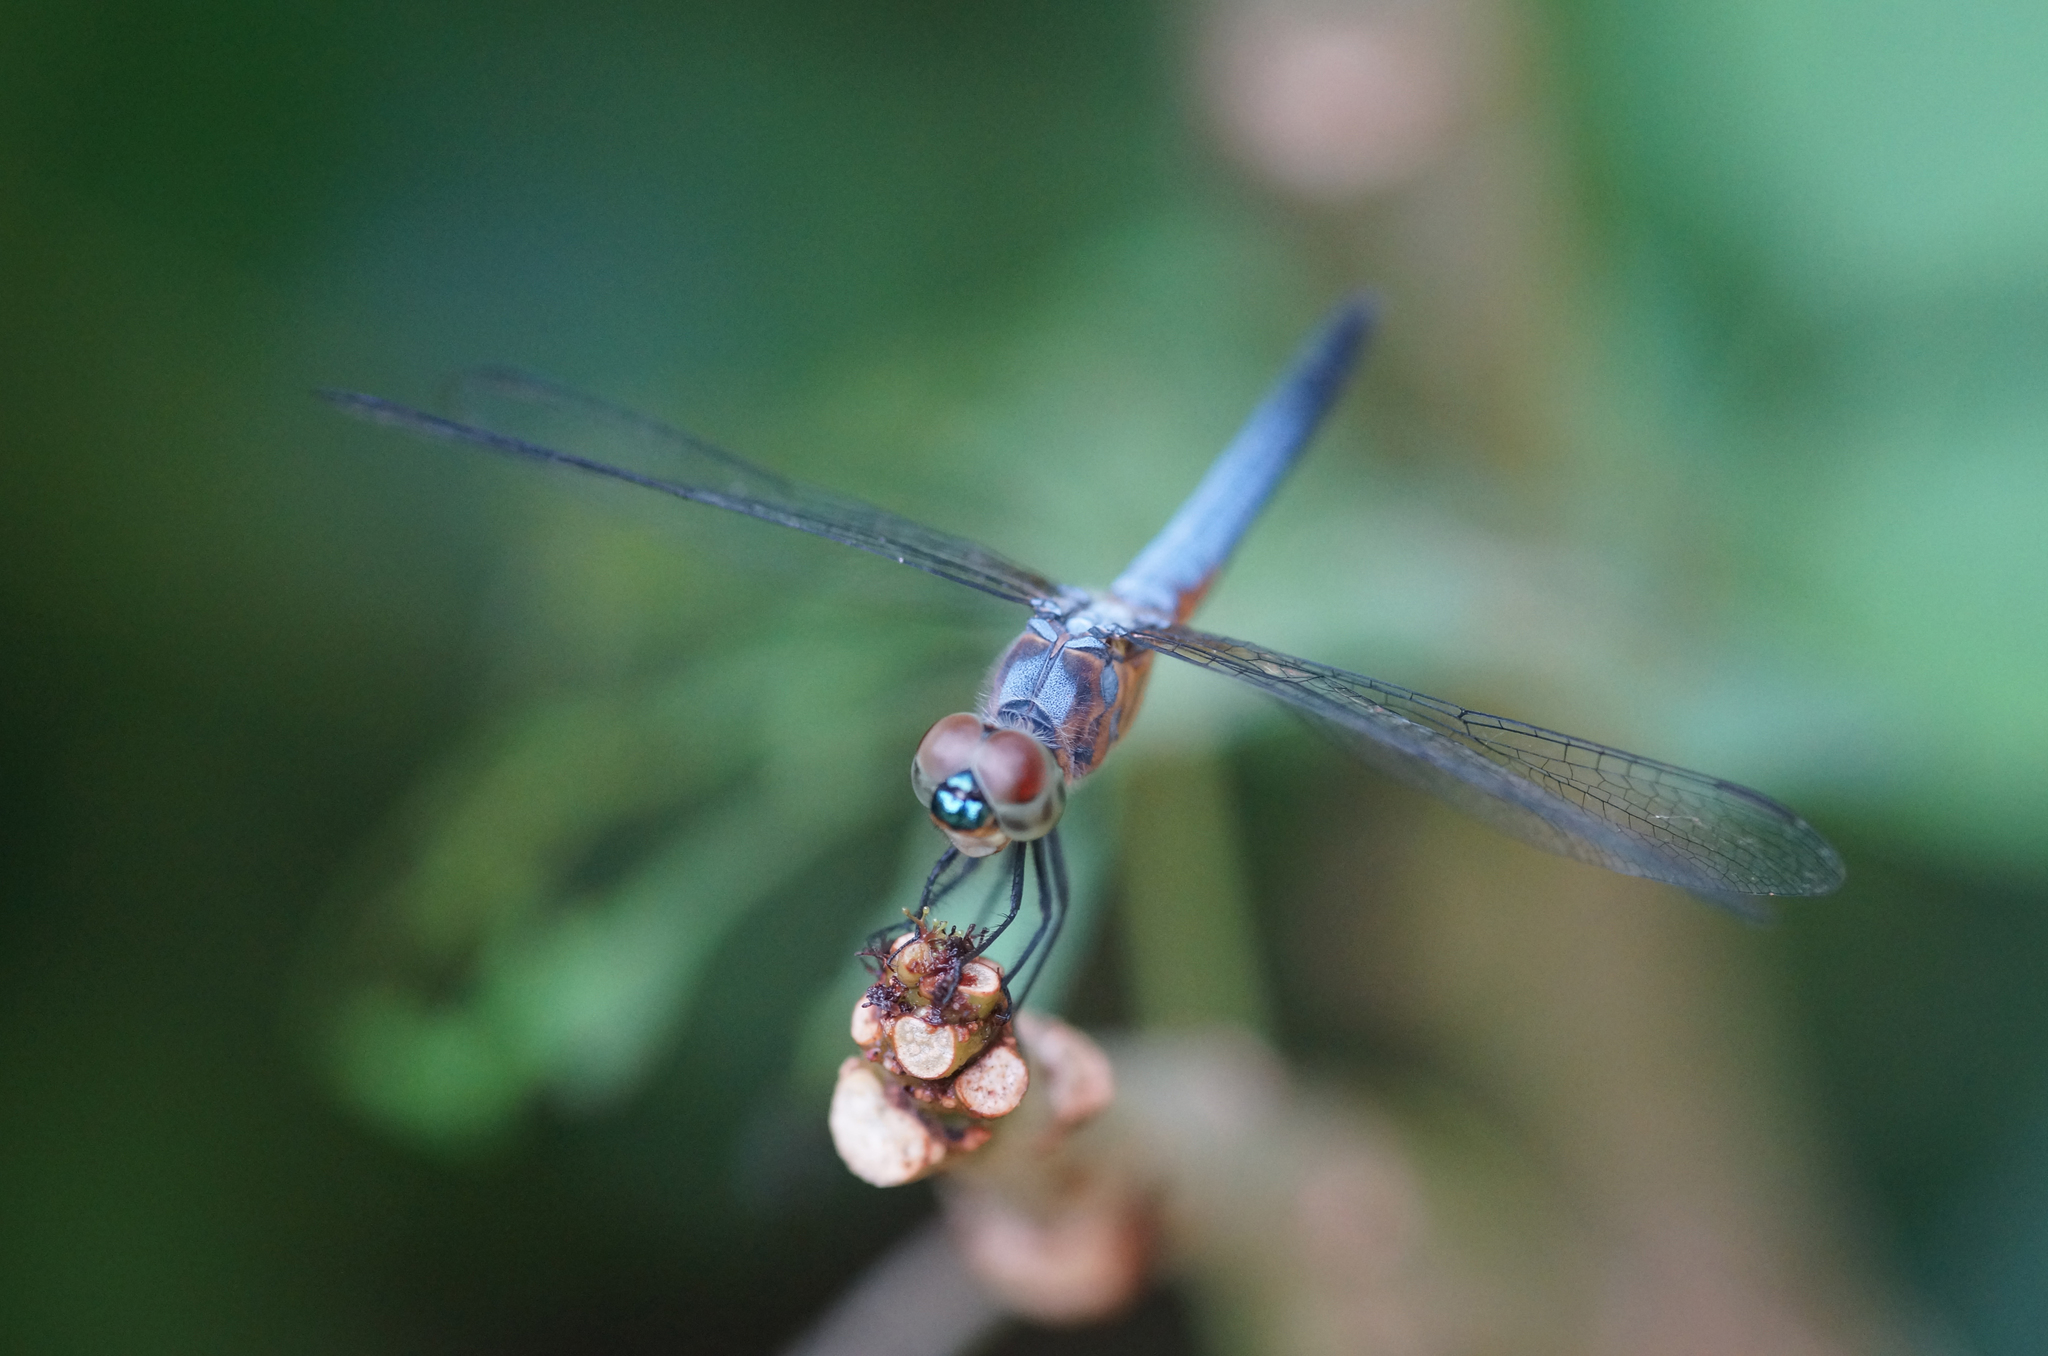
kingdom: Animalia
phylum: Arthropoda
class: Insecta
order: Odonata
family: Libellulidae
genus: Brachydiplax
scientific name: Brachydiplax chalybea
